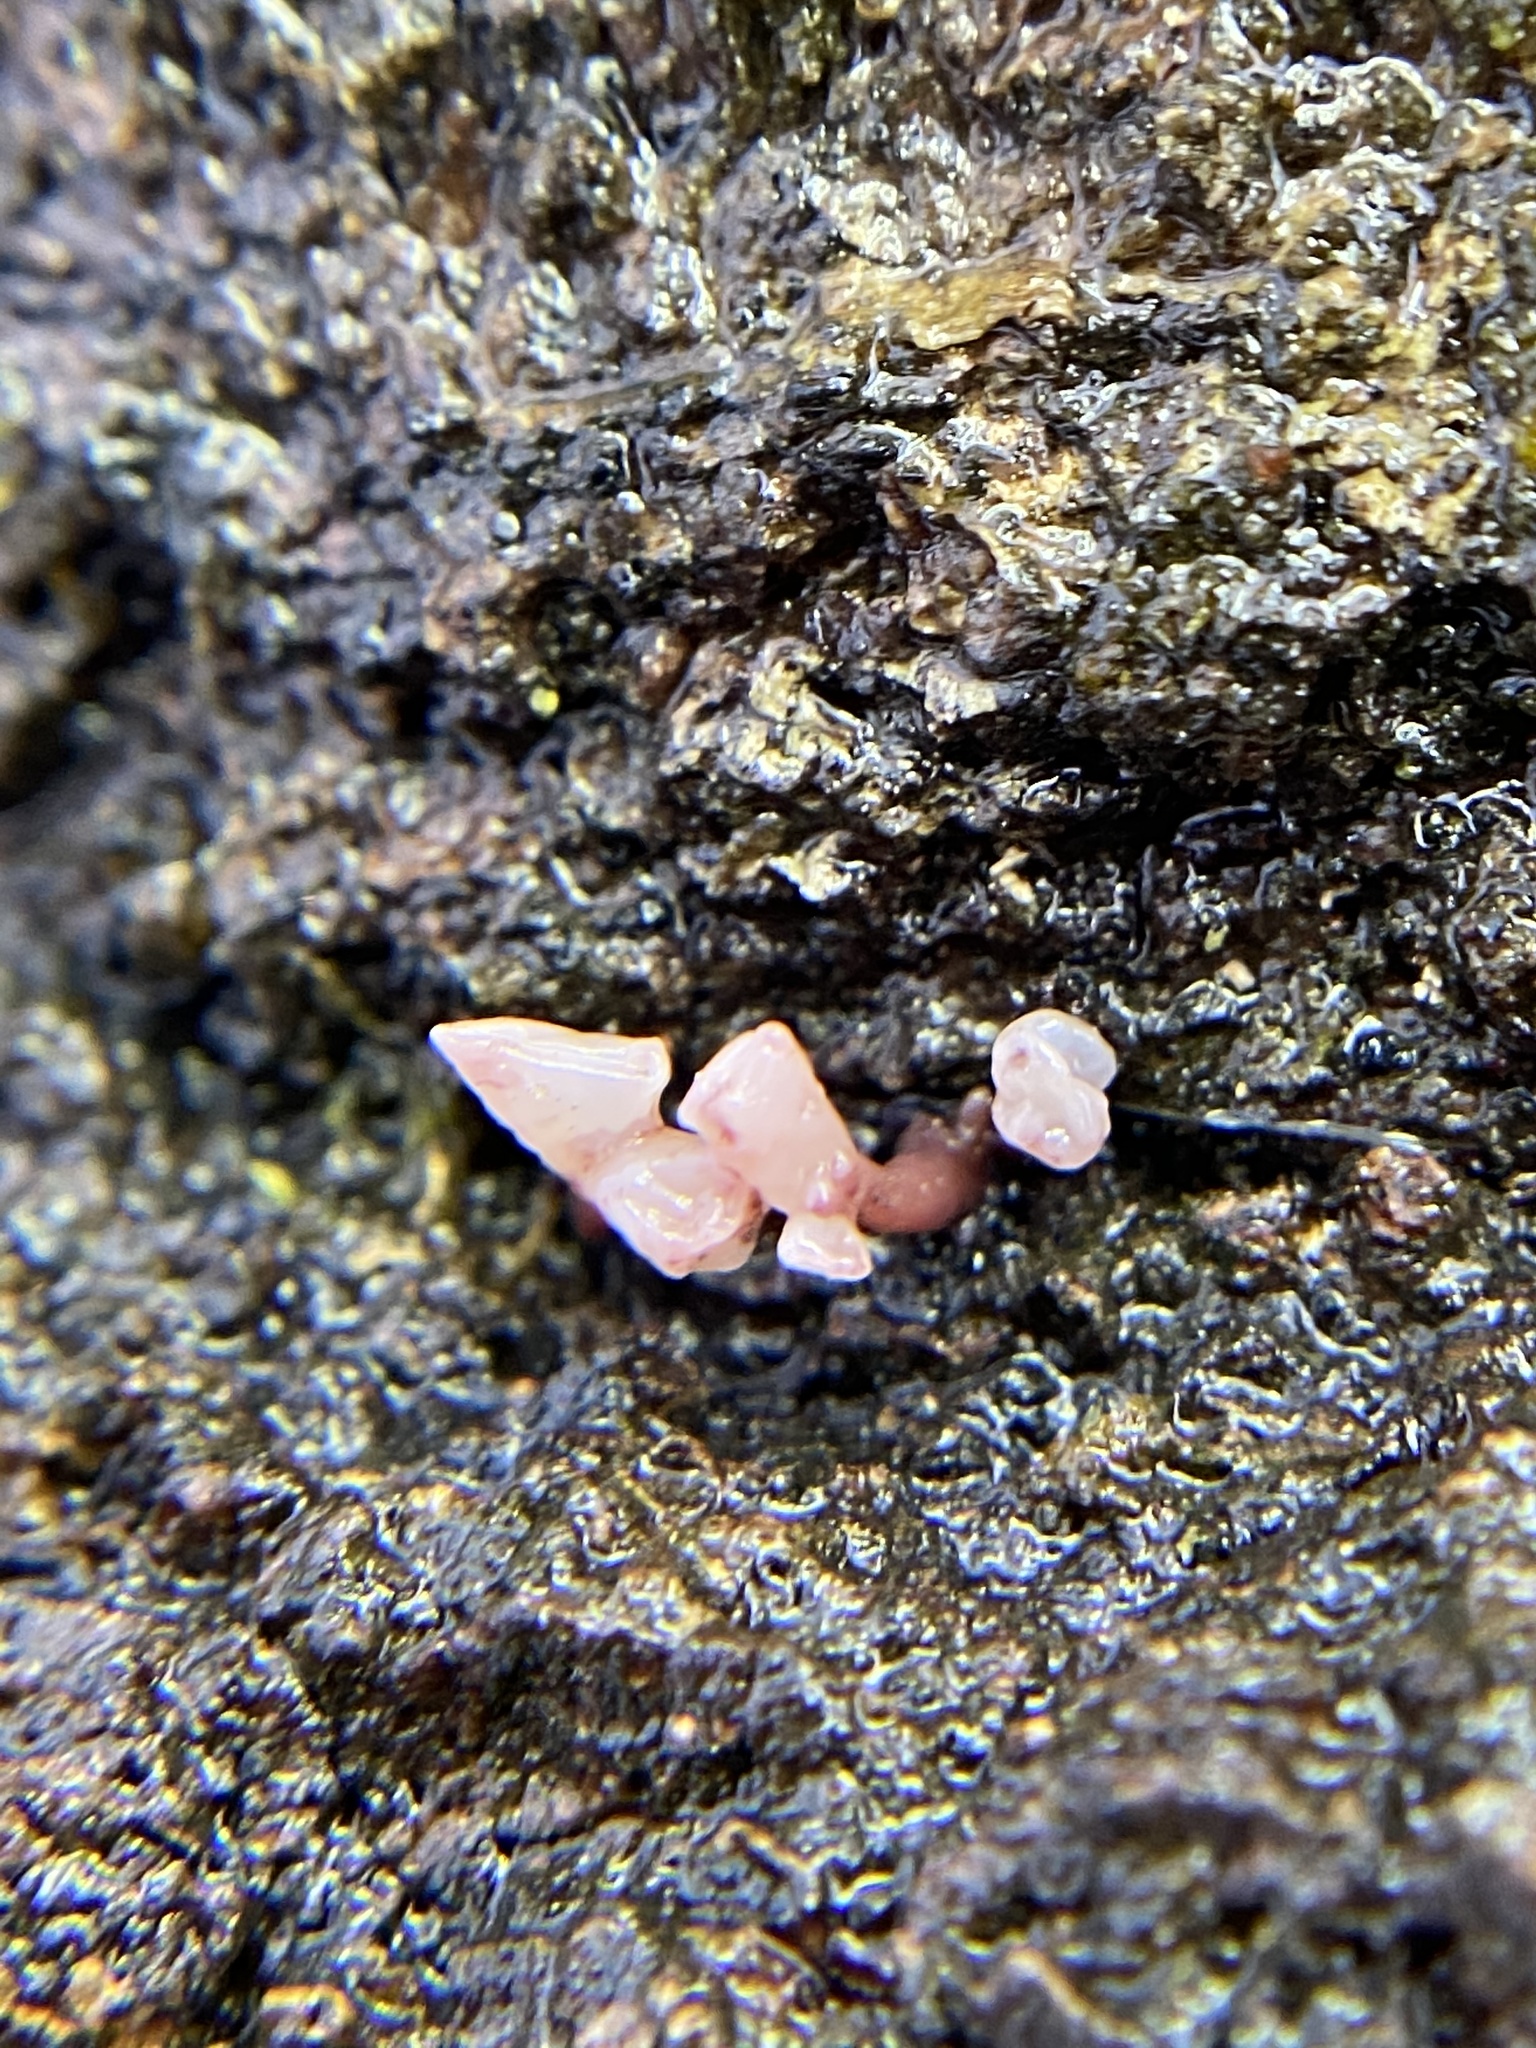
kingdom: Fungi
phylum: Ascomycota
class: Leotiomycetes
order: Helotiales
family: Gelatinodiscaceae
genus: Ascocoryne
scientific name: Ascocoryne sarcoides
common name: Purple jellydisc
